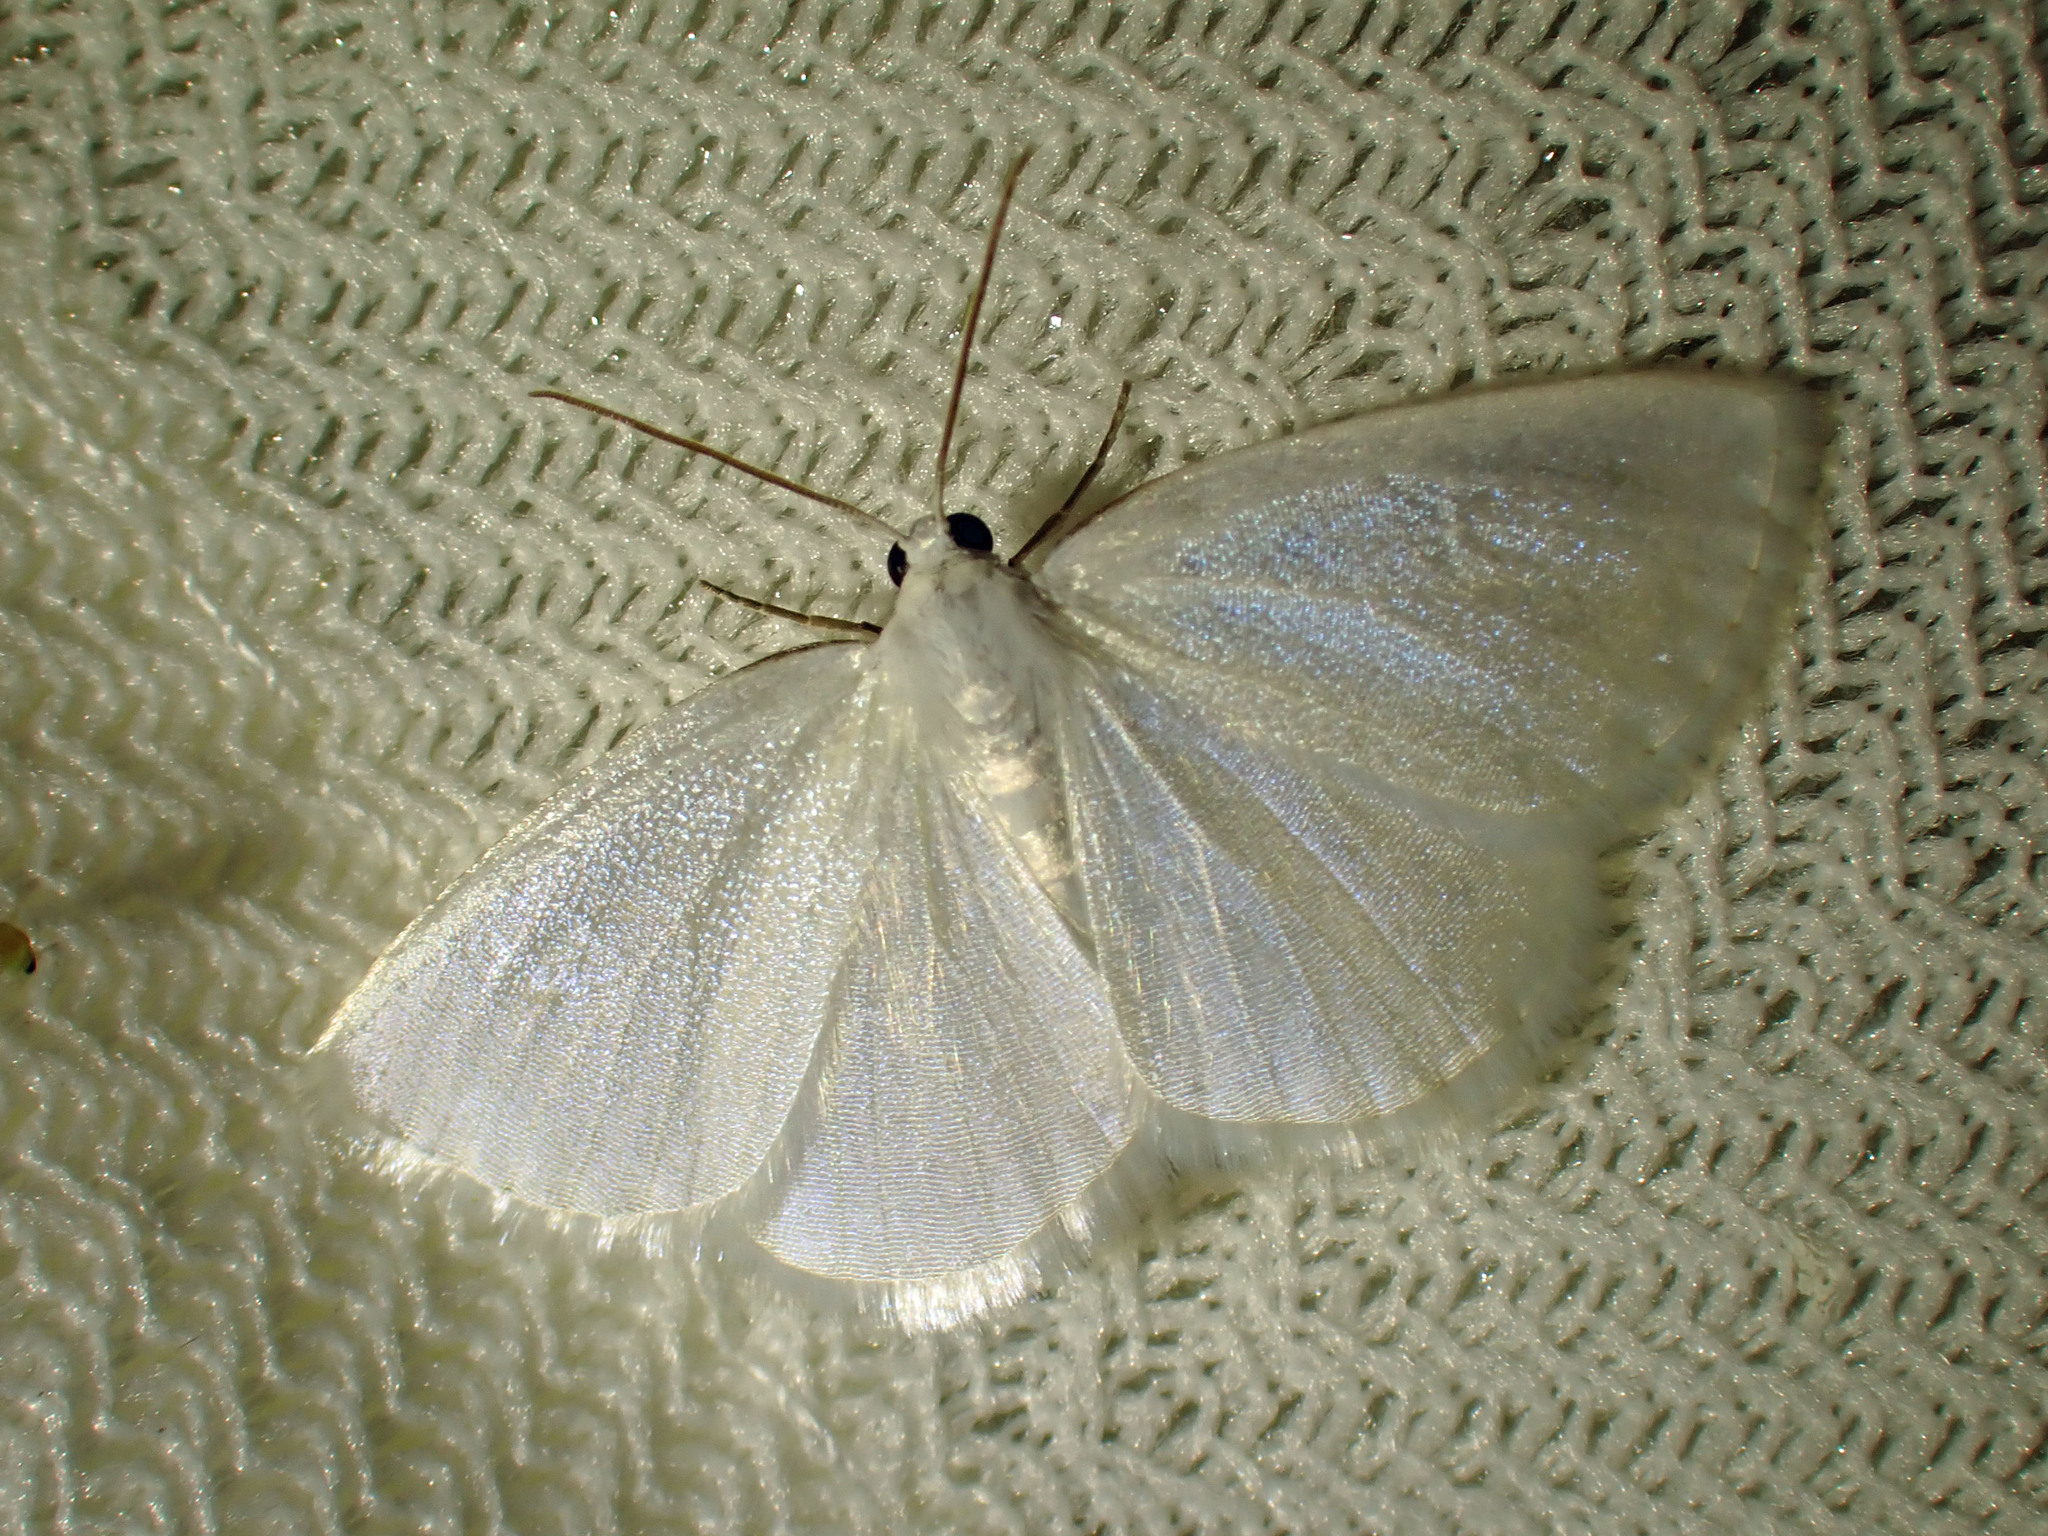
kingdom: Animalia
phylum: Arthropoda
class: Insecta
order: Lepidoptera
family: Geometridae
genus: Lomographa
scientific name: Lomographa vestaliata
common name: White spring moth
